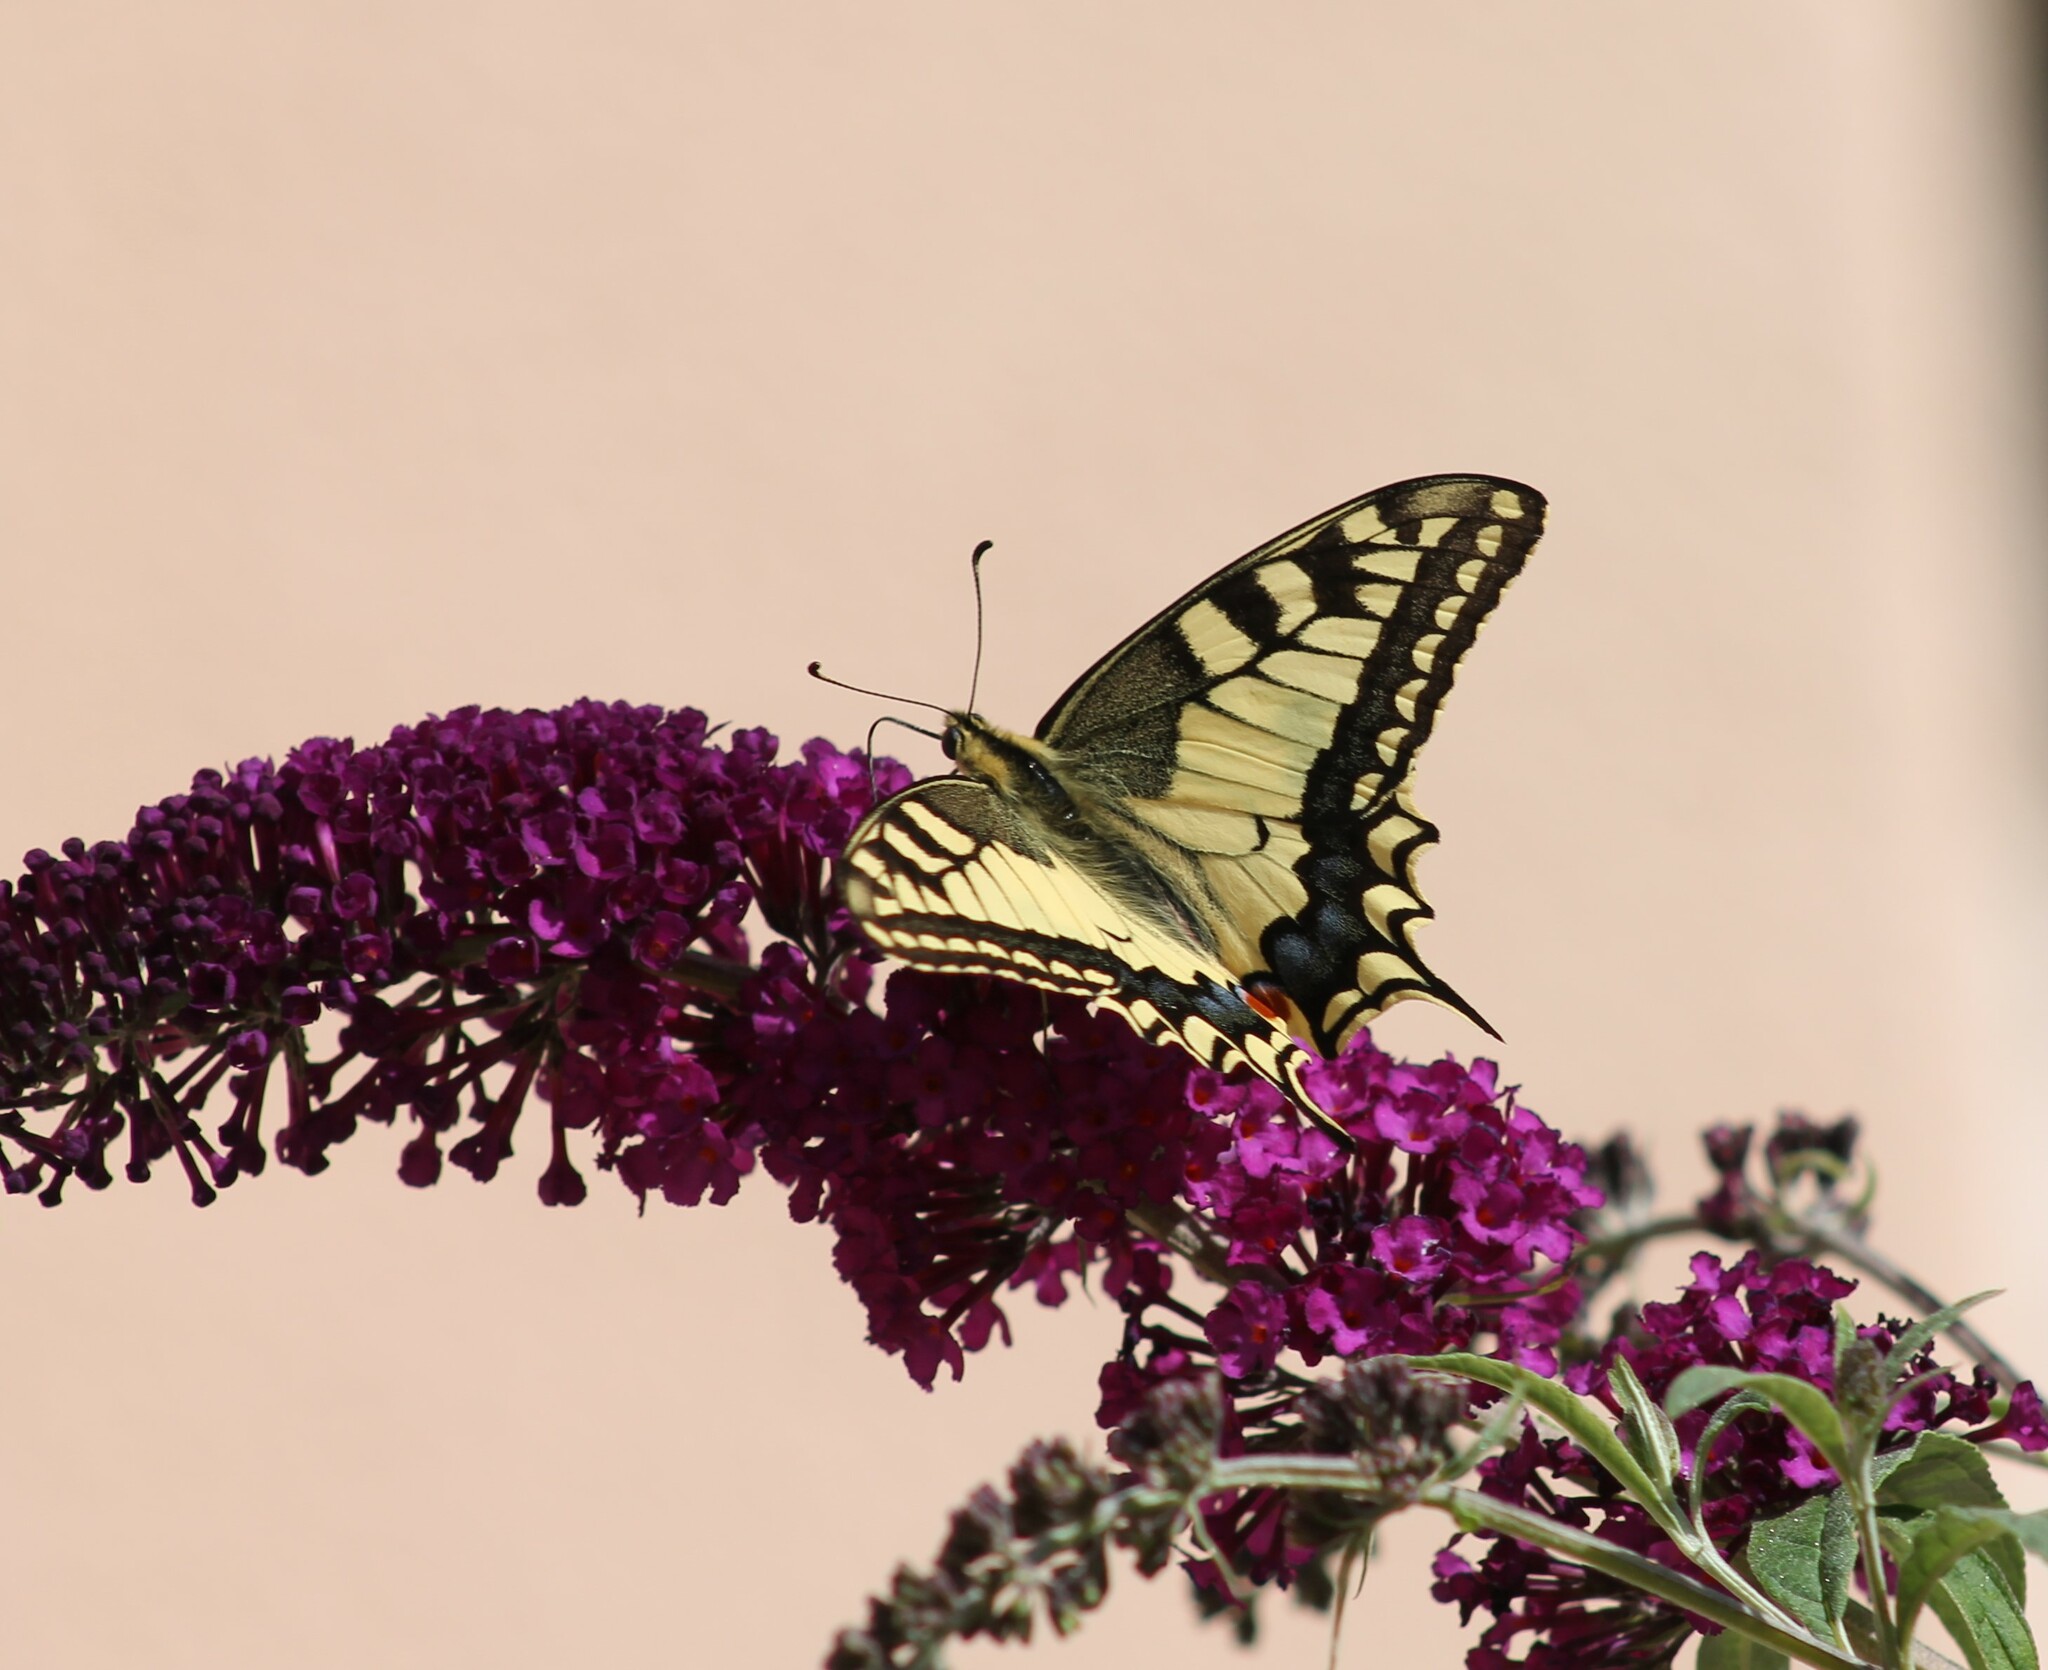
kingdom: Animalia
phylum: Arthropoda
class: Insecta
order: Lepidoptera
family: Papilionidae
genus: Papilio
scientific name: Papilio machaon
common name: Swallowtail
